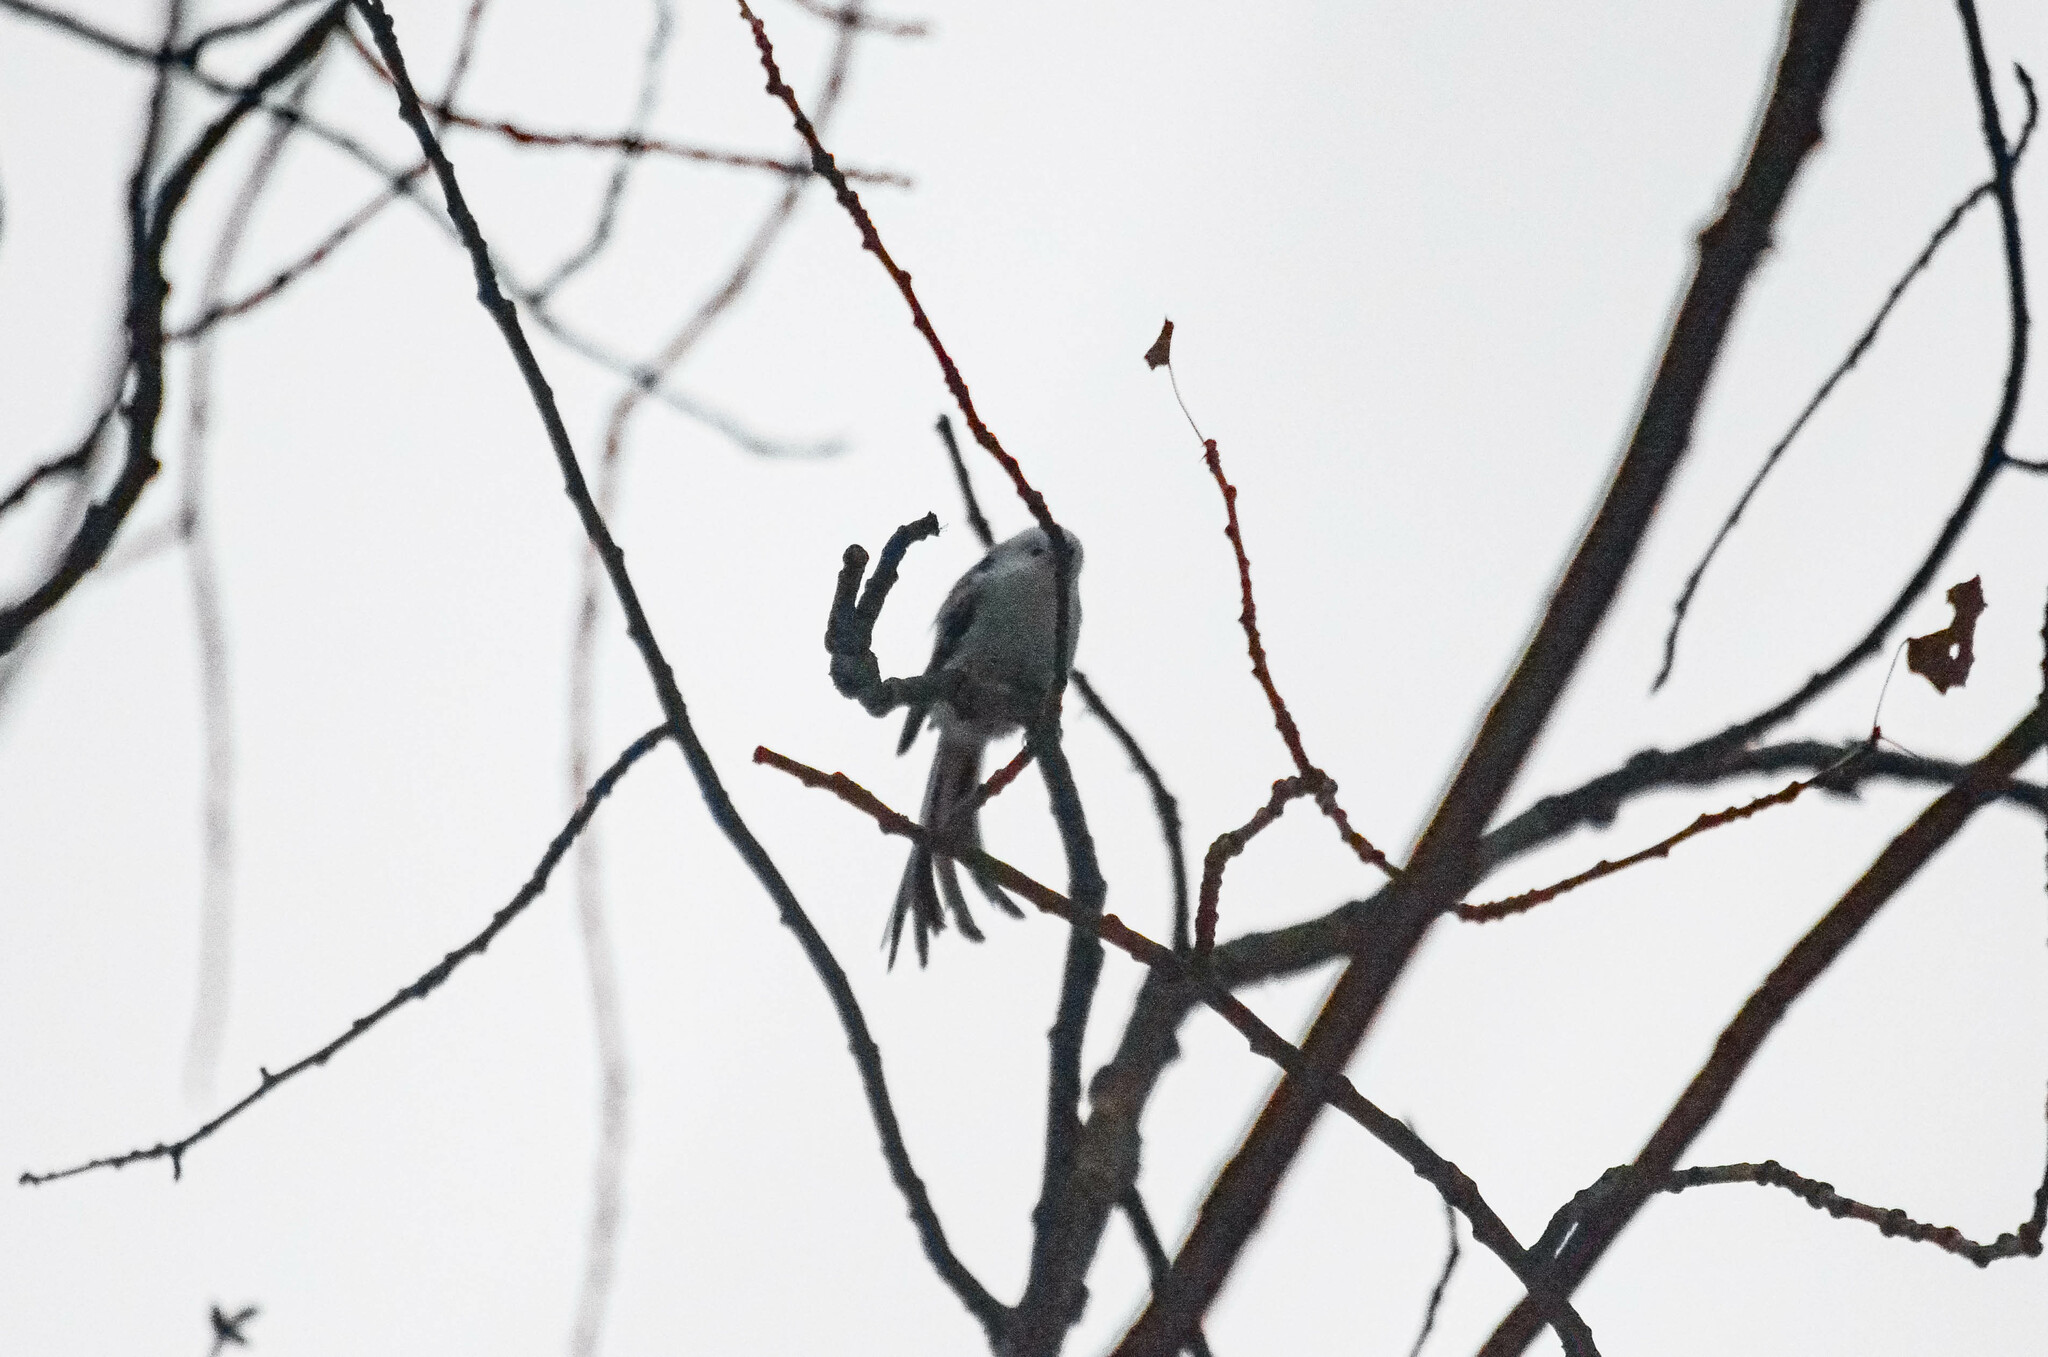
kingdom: Animalia
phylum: Chordata
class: Aves
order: Passeriformes
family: Aegithalidae
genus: Aegithalos
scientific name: Aegithalos caudatus
